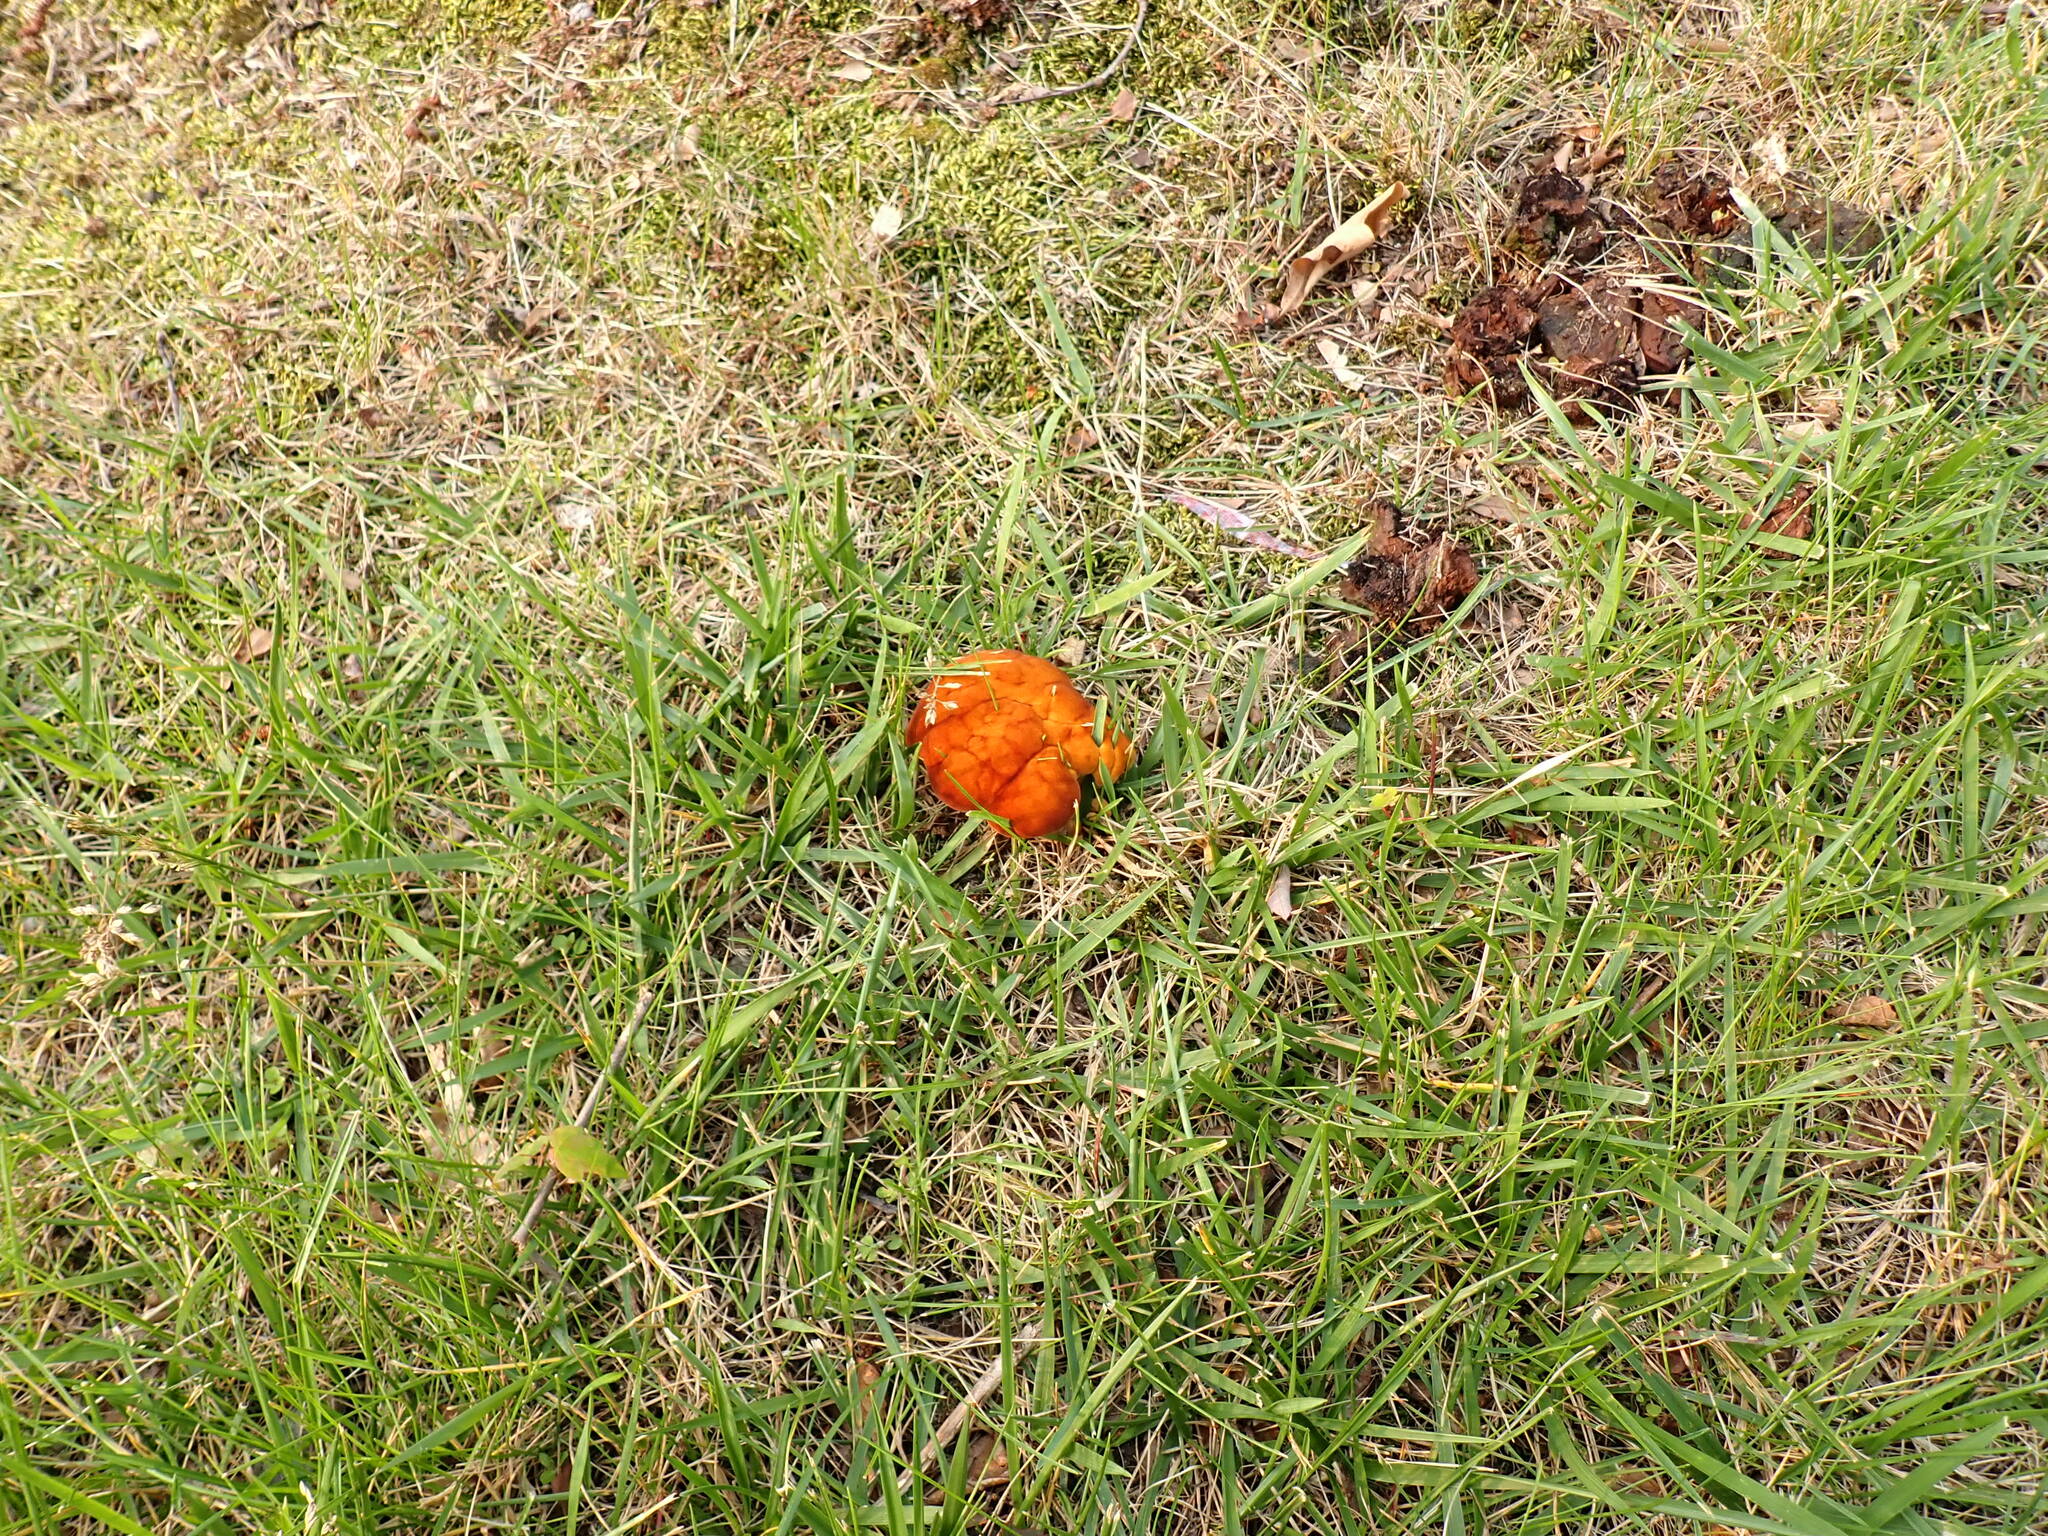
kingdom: Fungi
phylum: Basidiomycota
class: Agaricomycetes
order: Polyporales
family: Fomitopsidaceae
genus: Niveoporofomes
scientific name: Niveoporofomes spraguei
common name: Green cheese polypore
